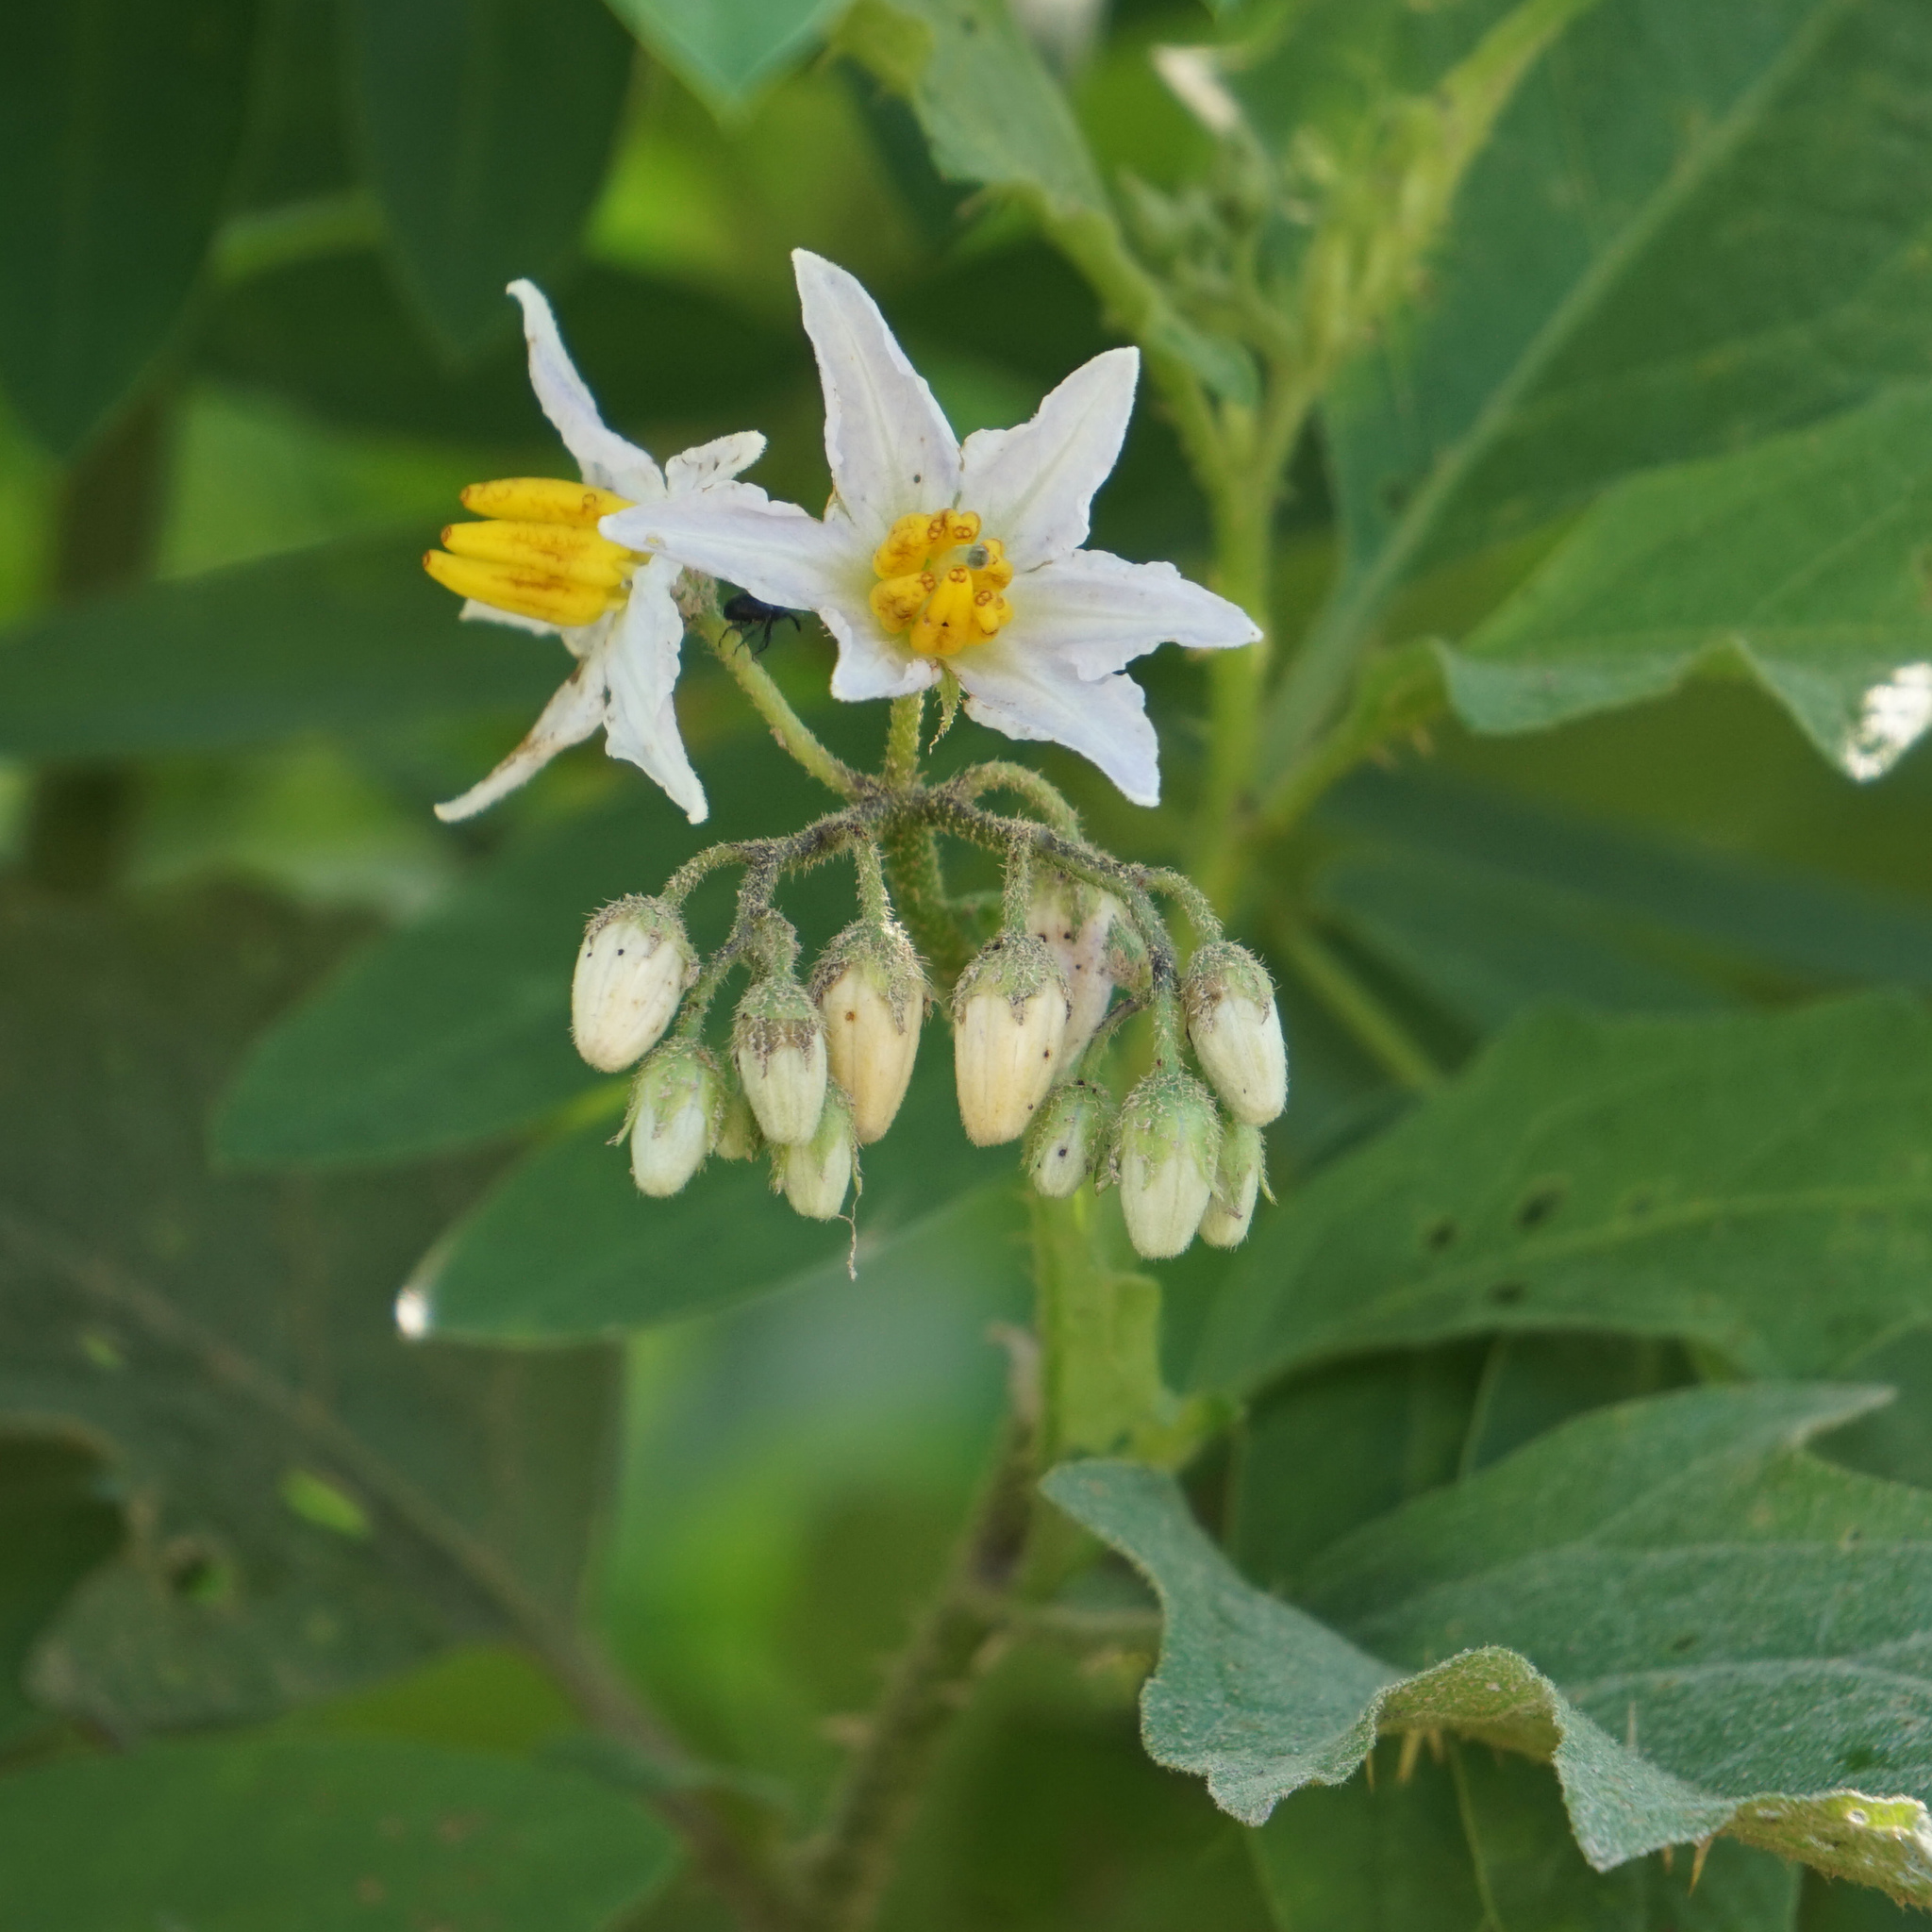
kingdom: Plantae
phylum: Tracheophyta
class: Magnoliopsida
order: Solanales
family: Solanaceae
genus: Solanum
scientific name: Solanum carolinense
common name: Horse-nettle
